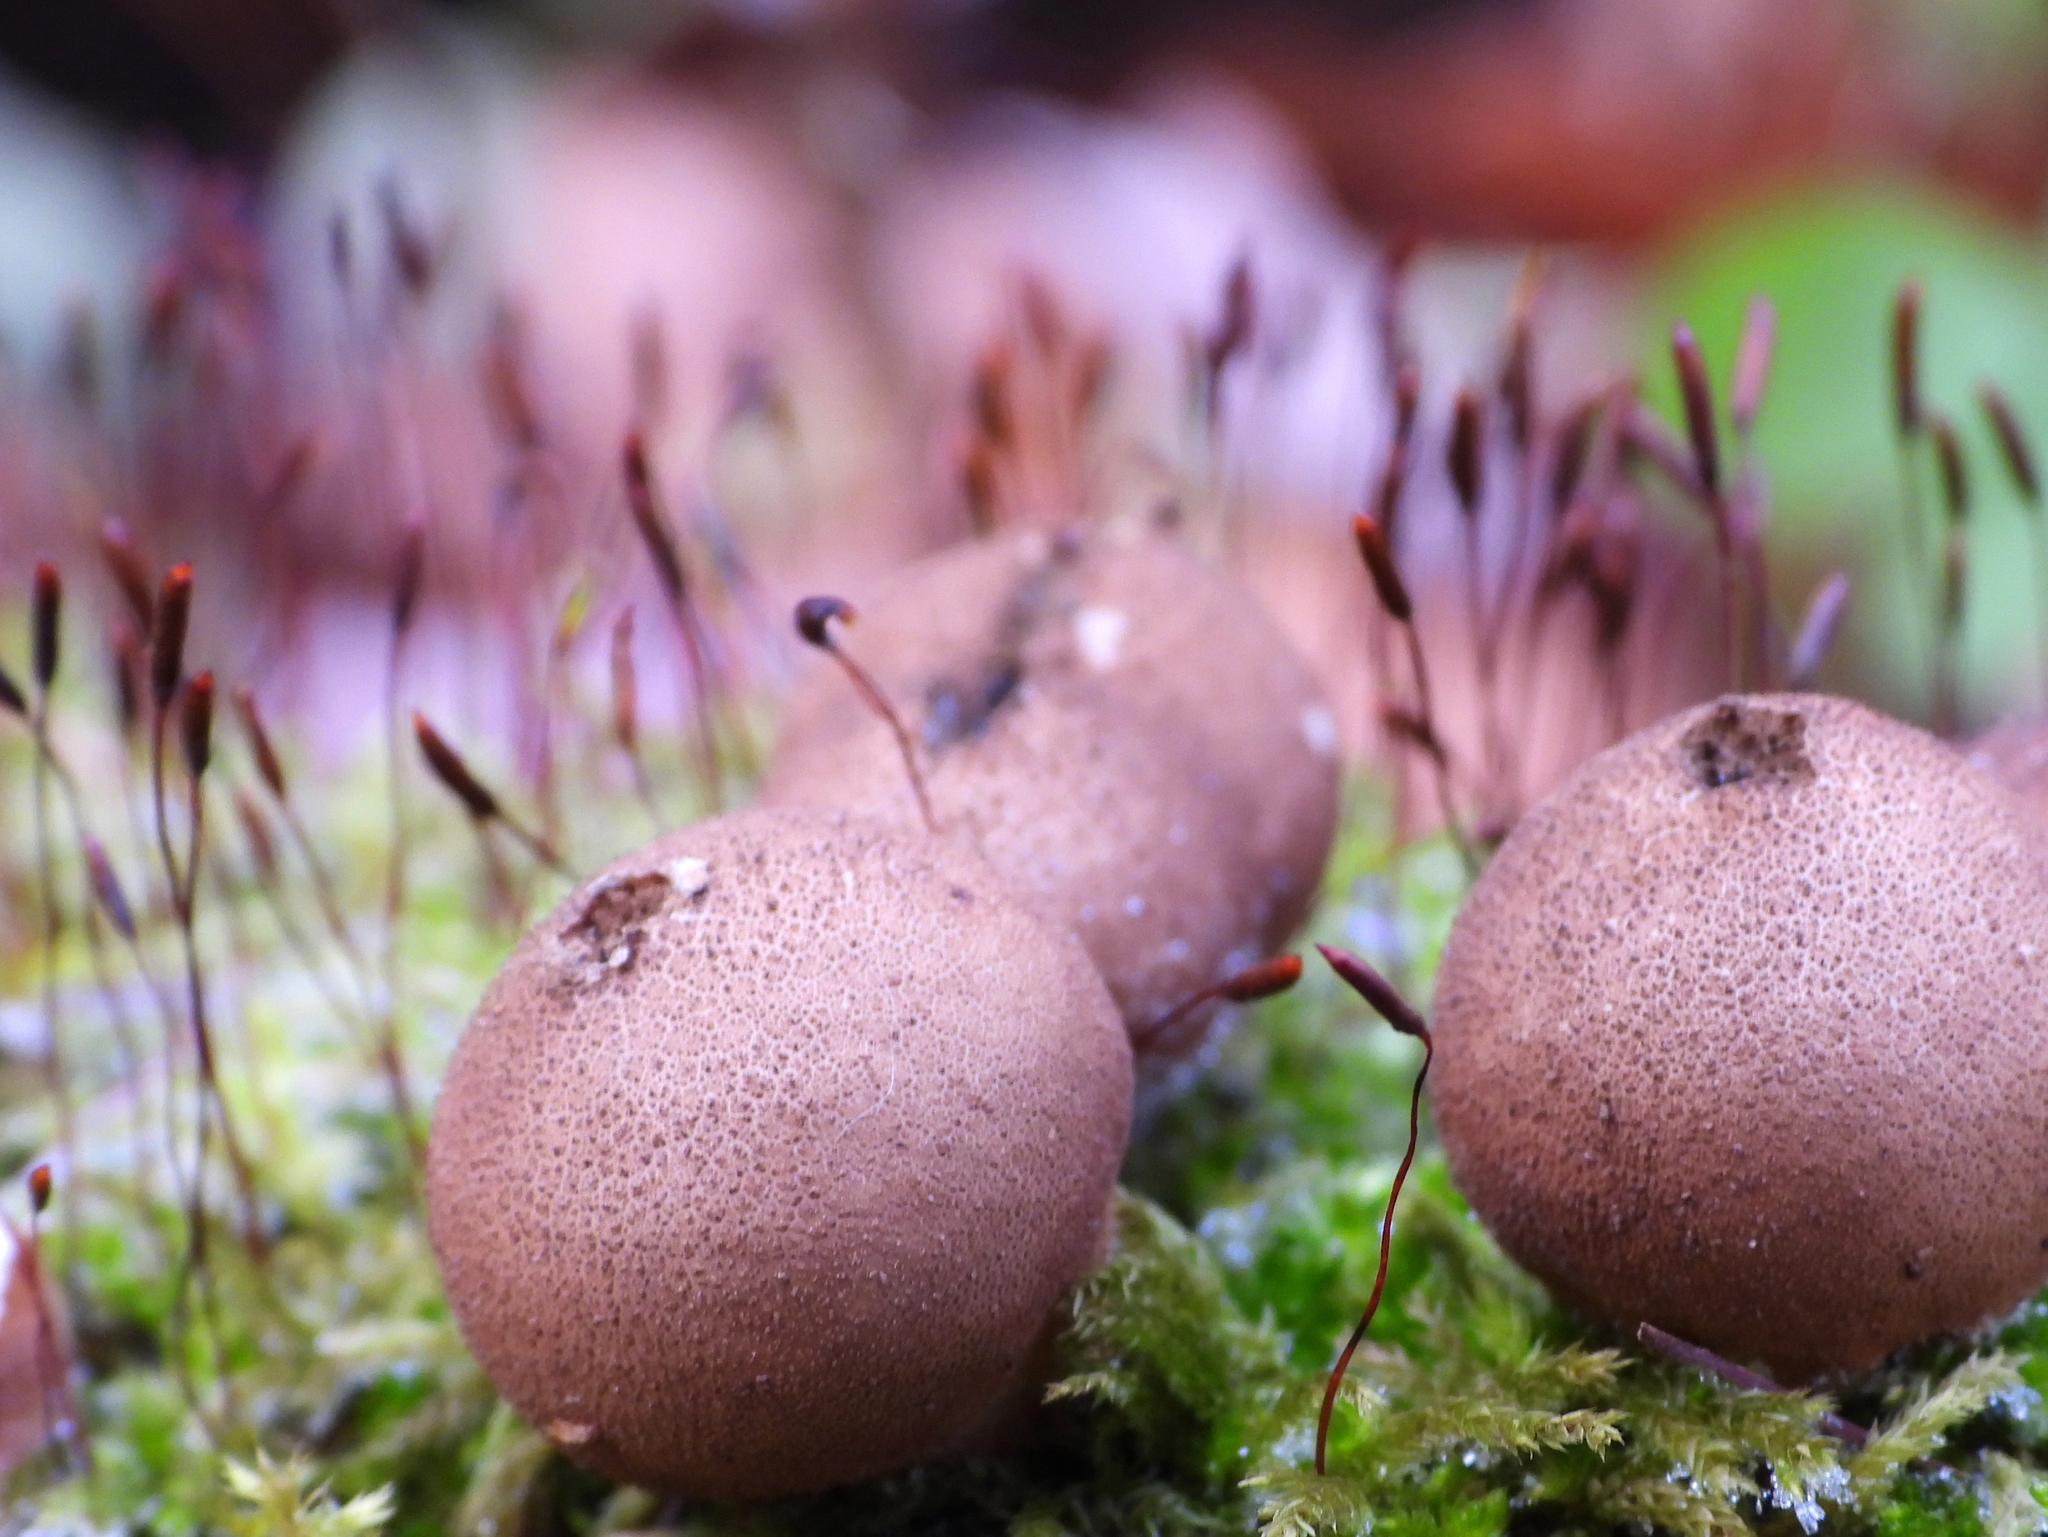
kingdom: Fungi
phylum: Basidiomycota
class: Agaricomycetes
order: Agaricales
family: Lycoperdaceae
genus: Apioperdon
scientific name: Apioperdon pyriforme
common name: Pear-shaped puffball
